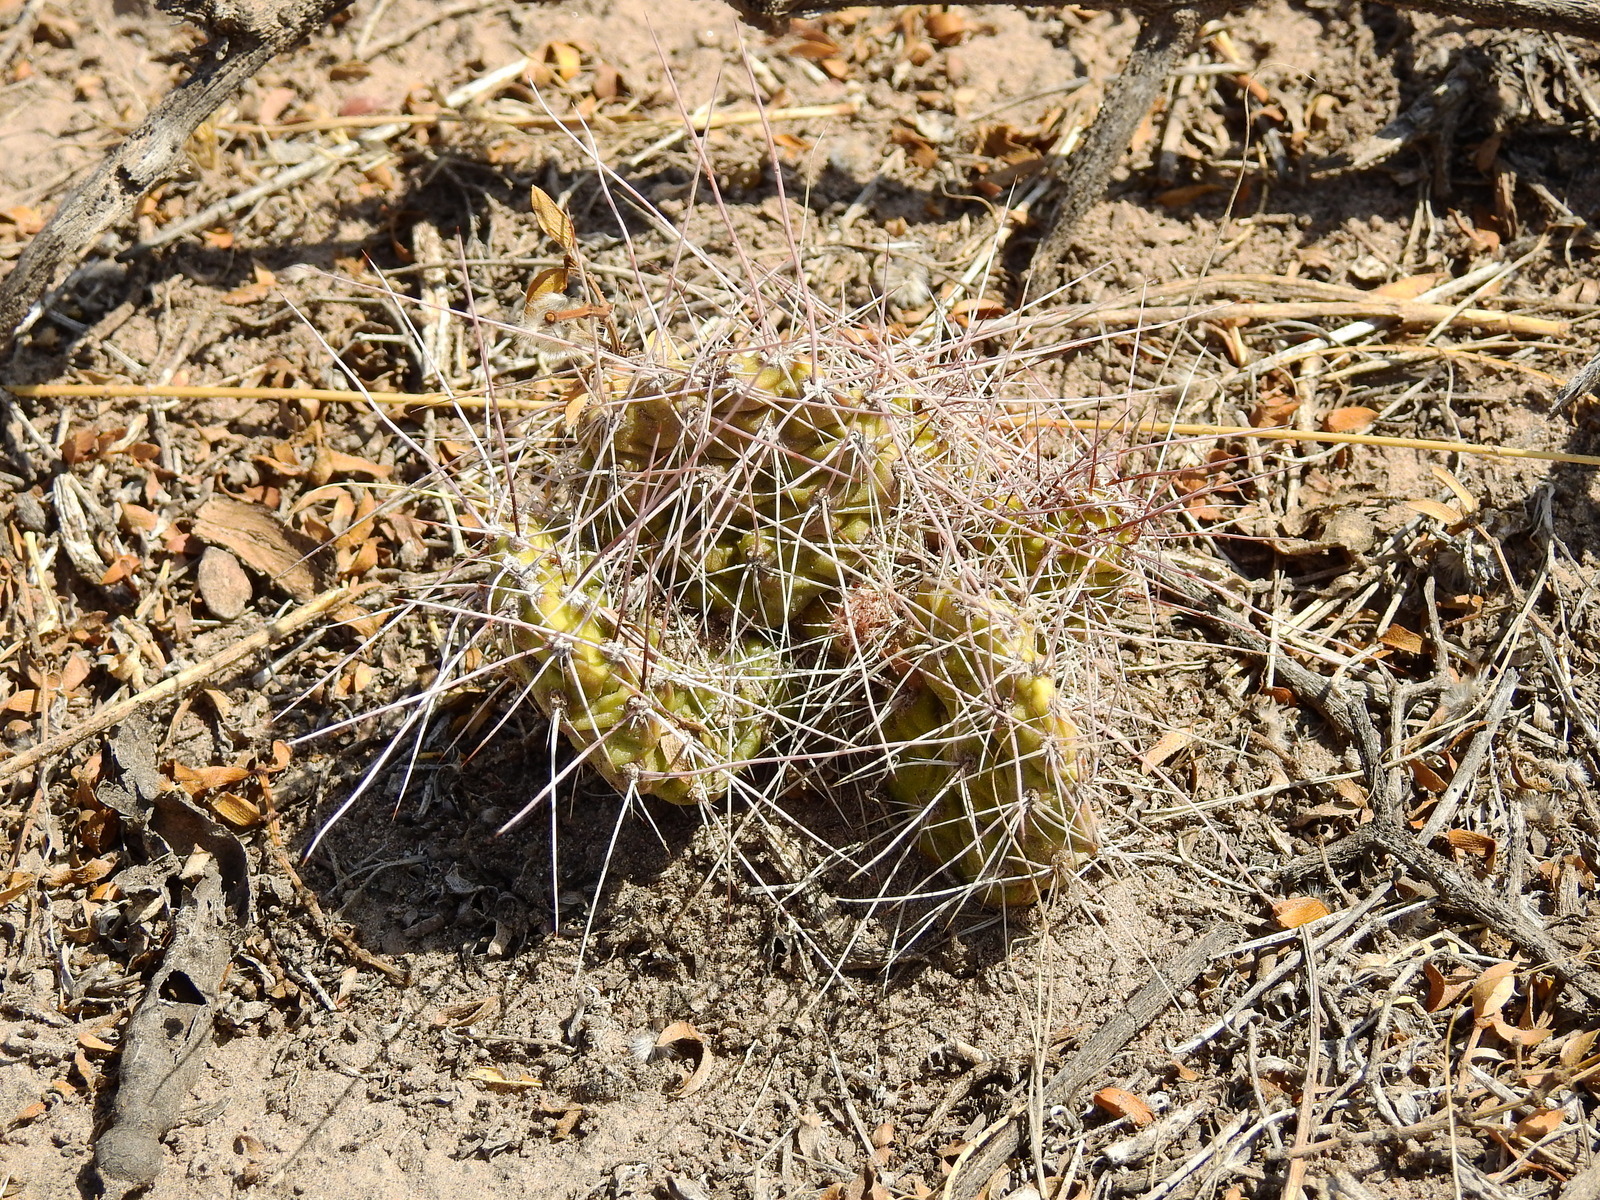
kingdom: Plantae
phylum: Tracheophyta
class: Magnoliopsida
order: Caryophyllales
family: Cactaceae
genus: Airampoa
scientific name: Airampoa corrugata
